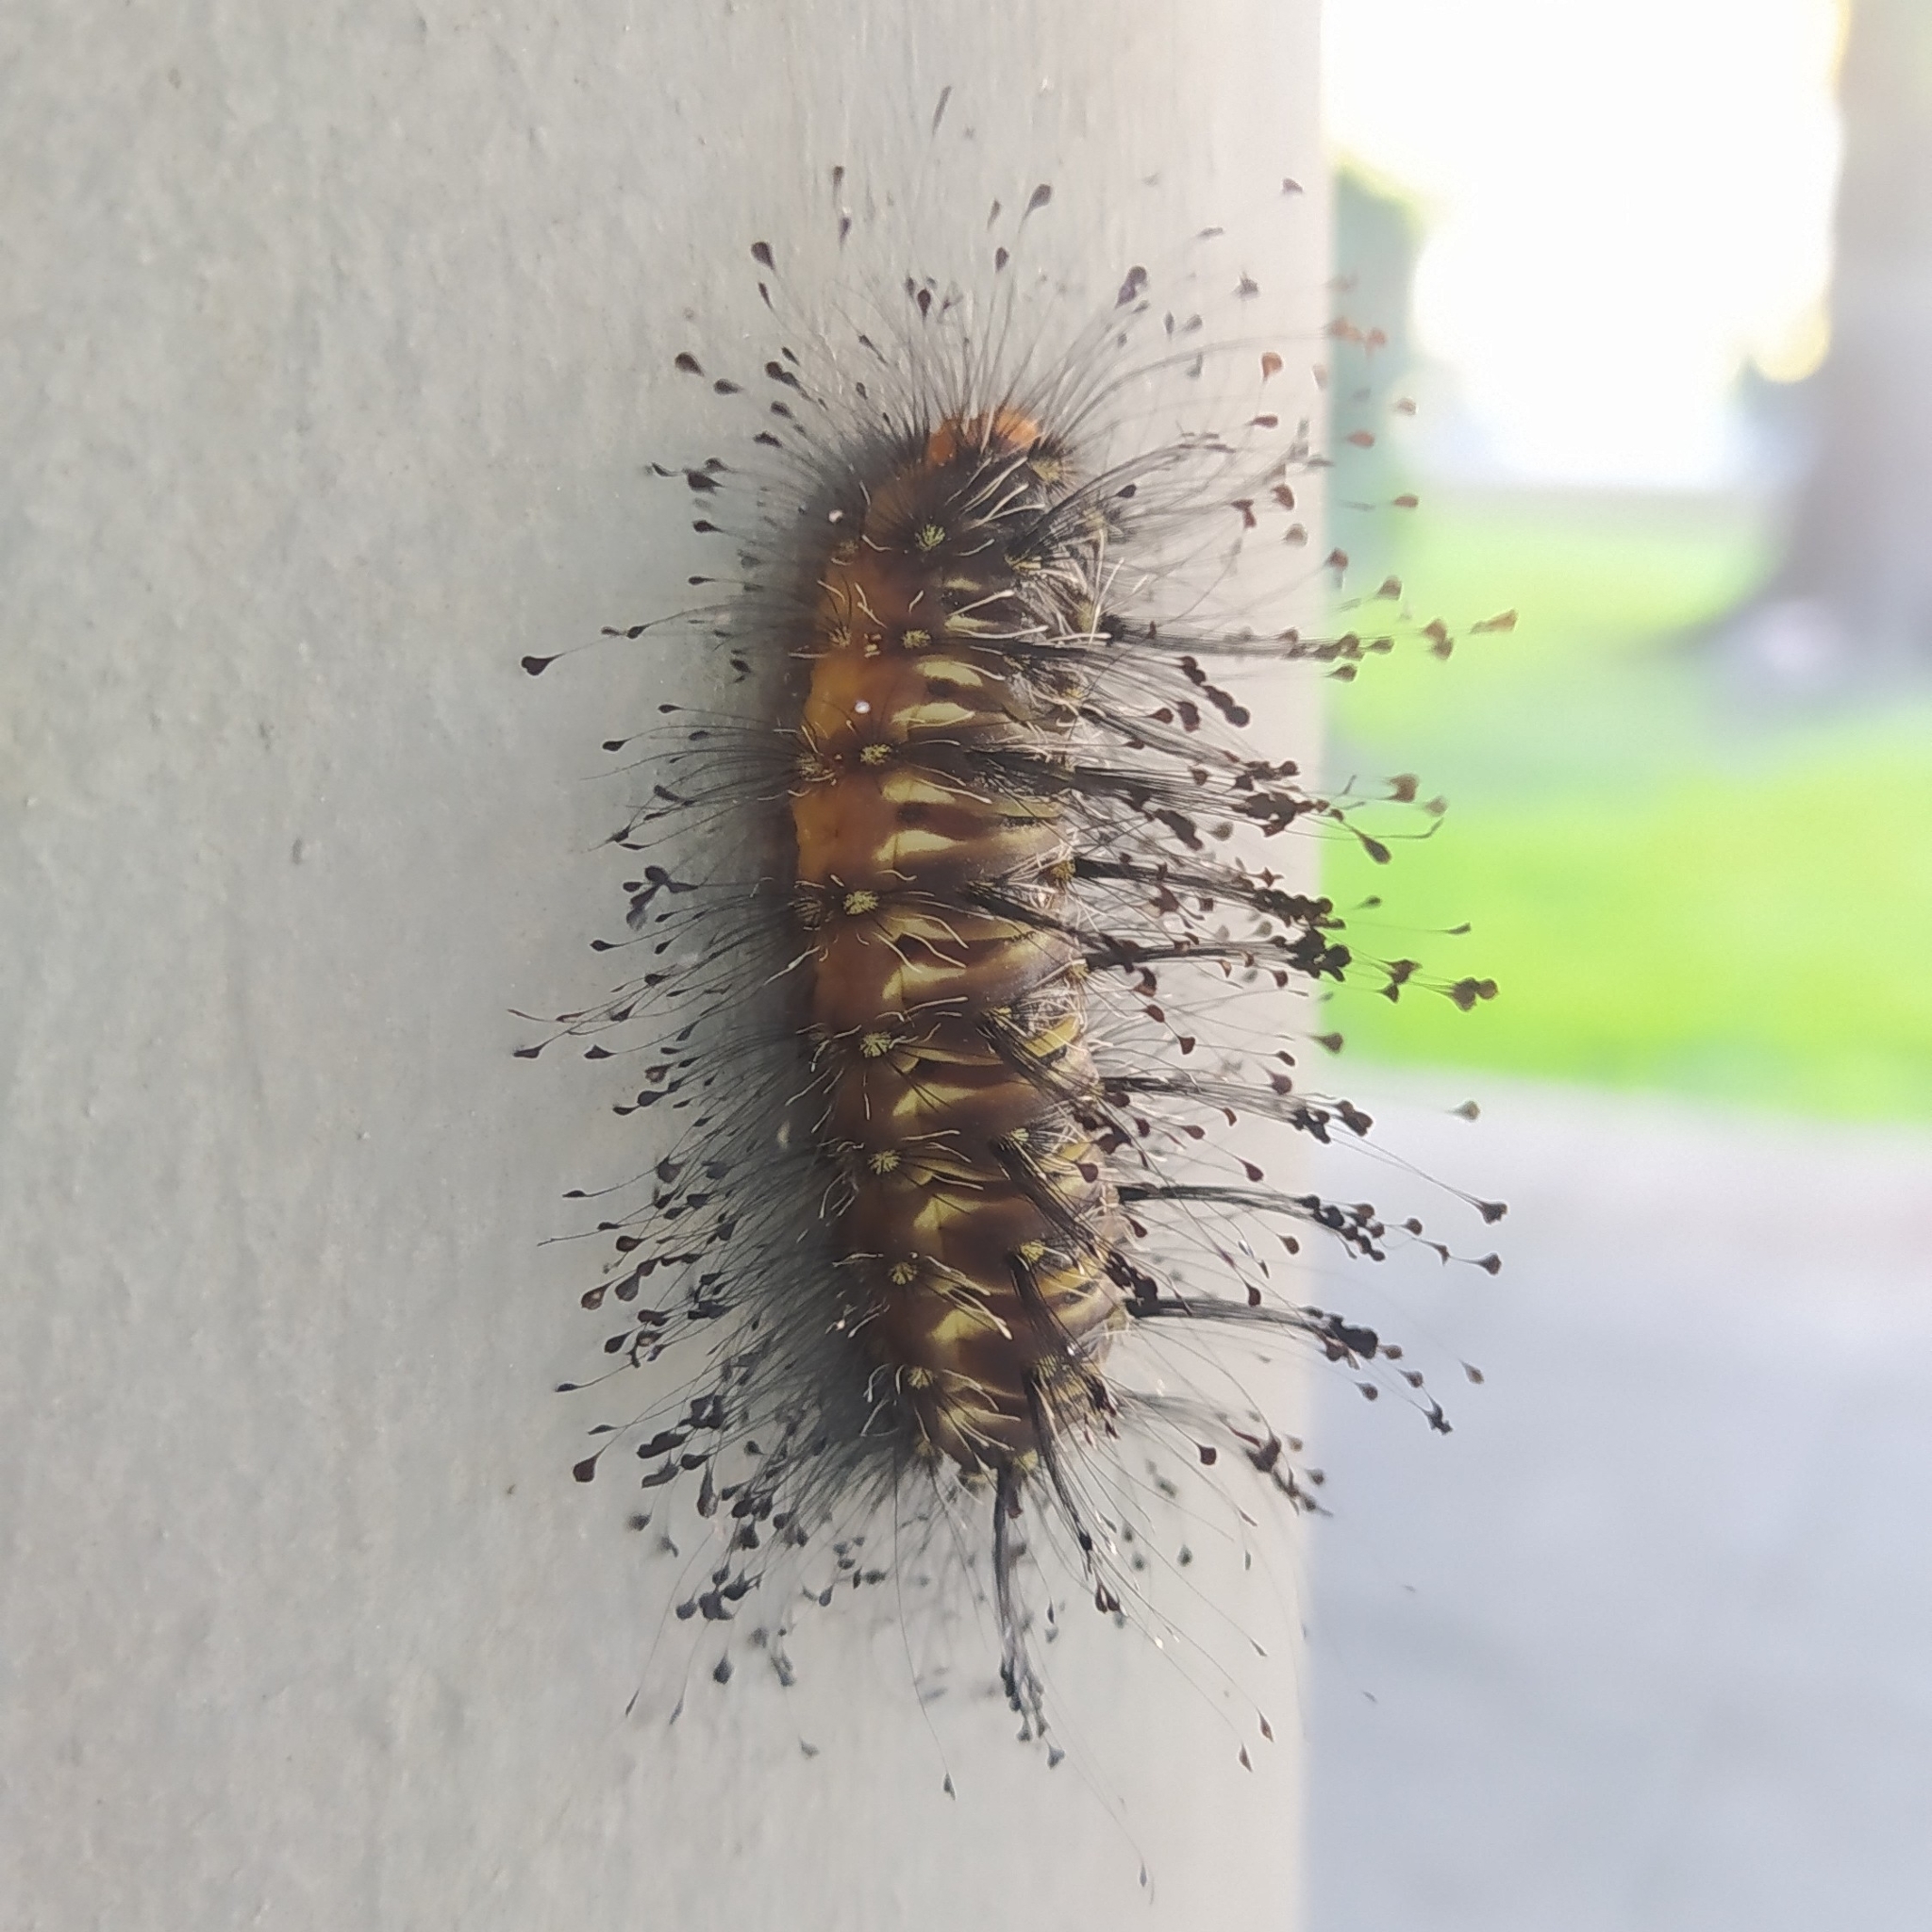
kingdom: Animalia
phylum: Arthropoda
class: Insecta
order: Lepidoptera
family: Megalopygidae
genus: Megalopyge
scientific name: Megalopyge urens
